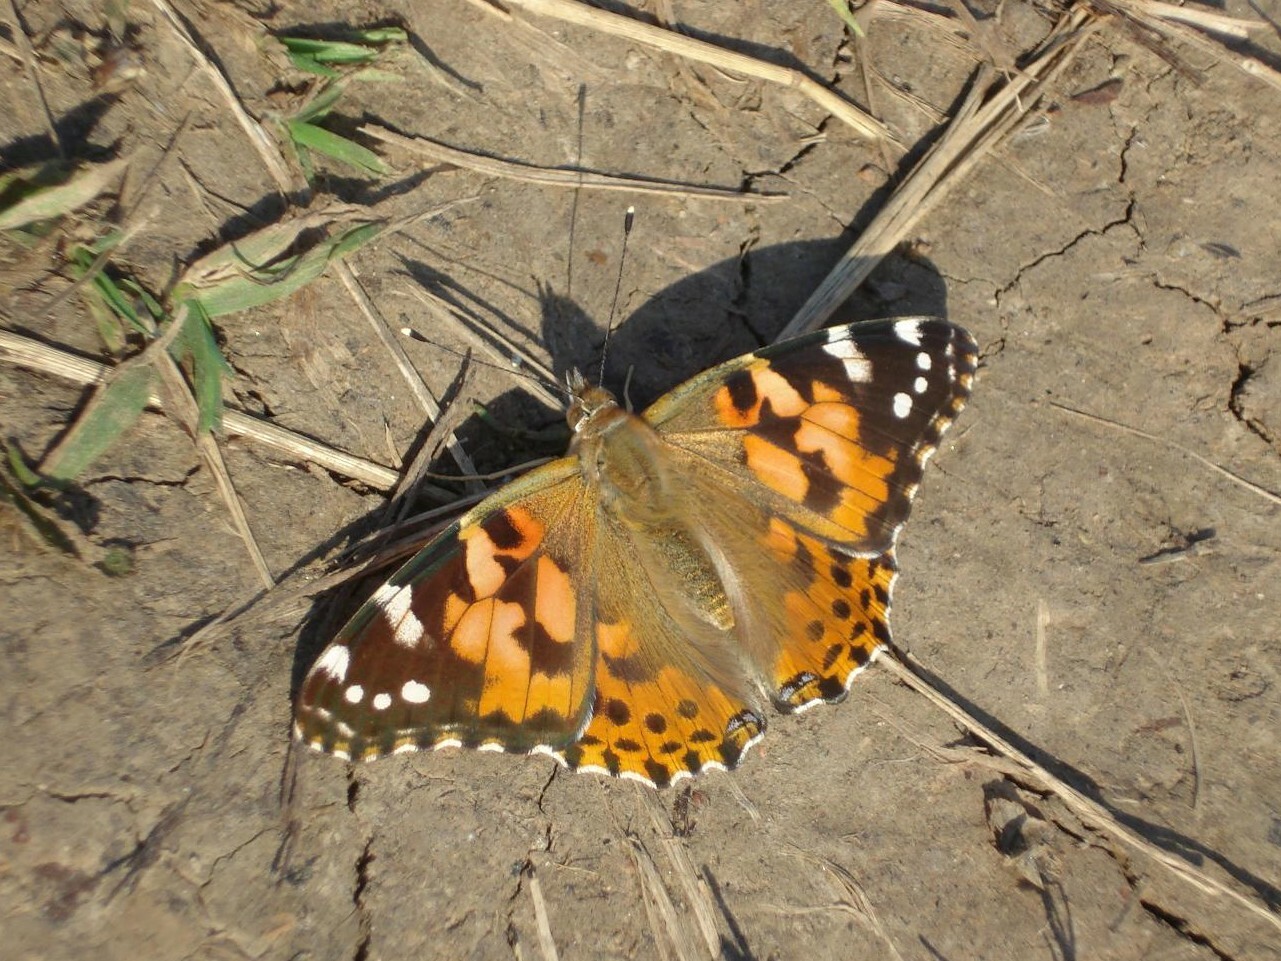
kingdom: Animalia
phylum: Arthropoda
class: Insecta
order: Lepidoptera
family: Nymphalidae
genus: Vanessa
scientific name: Vanessa cardui
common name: Painted lady
